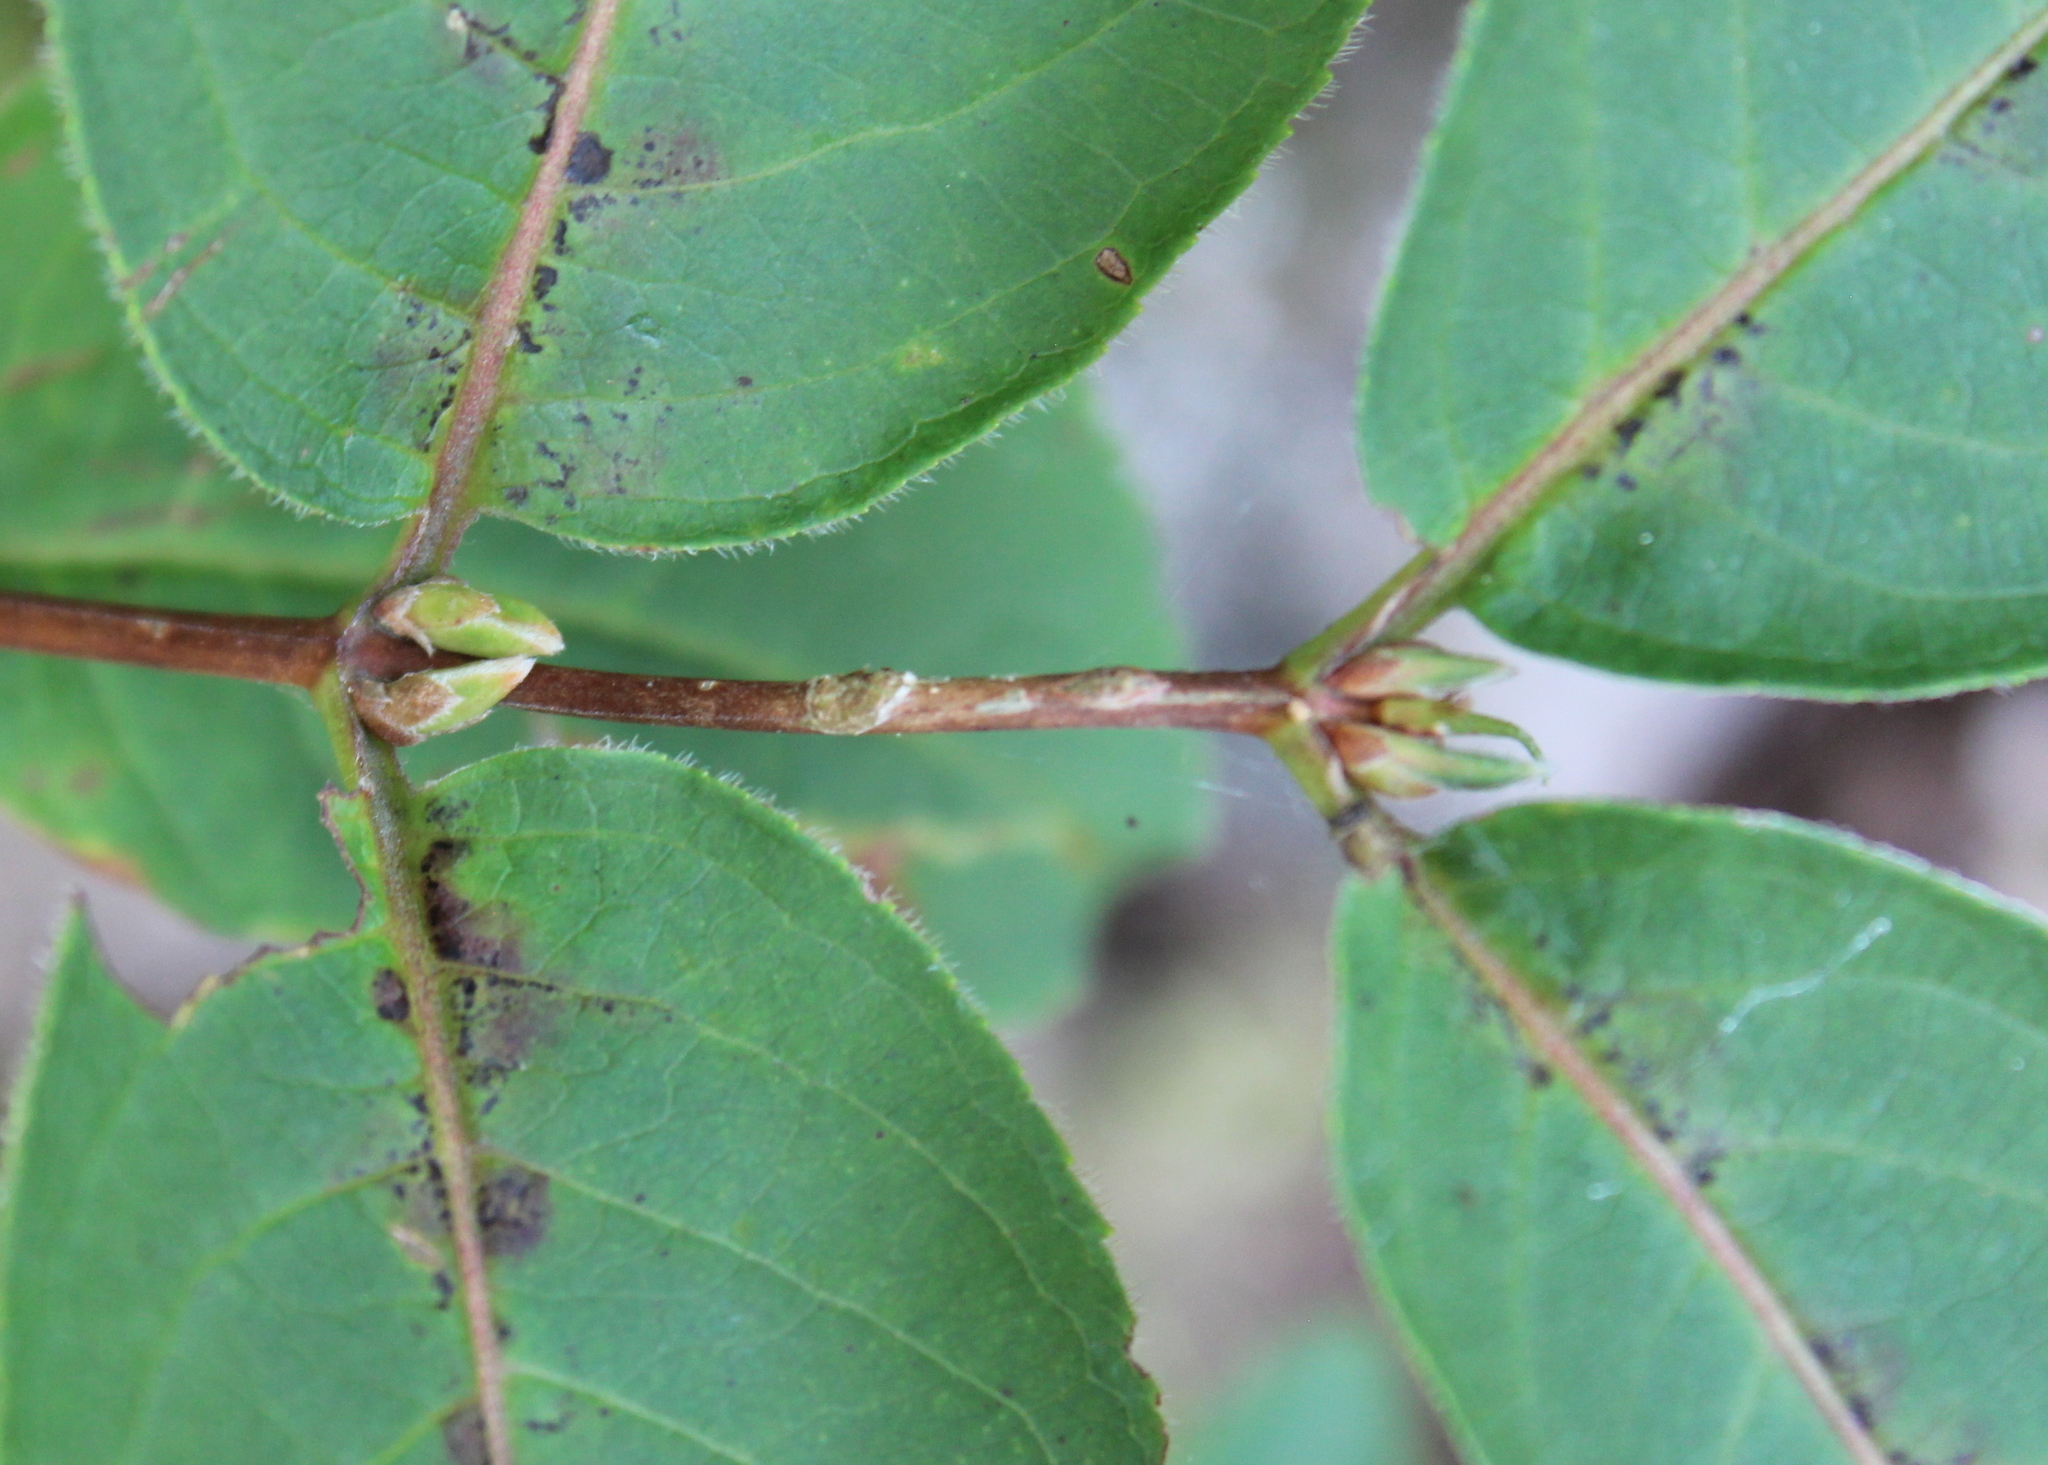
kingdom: Plantae
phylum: Tracheophyta
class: Magnoliopsida
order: Dipsacales
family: Caprifoliaceae
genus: Diervilla
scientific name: Diervilla lonicera
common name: Bush-honeysuckle
